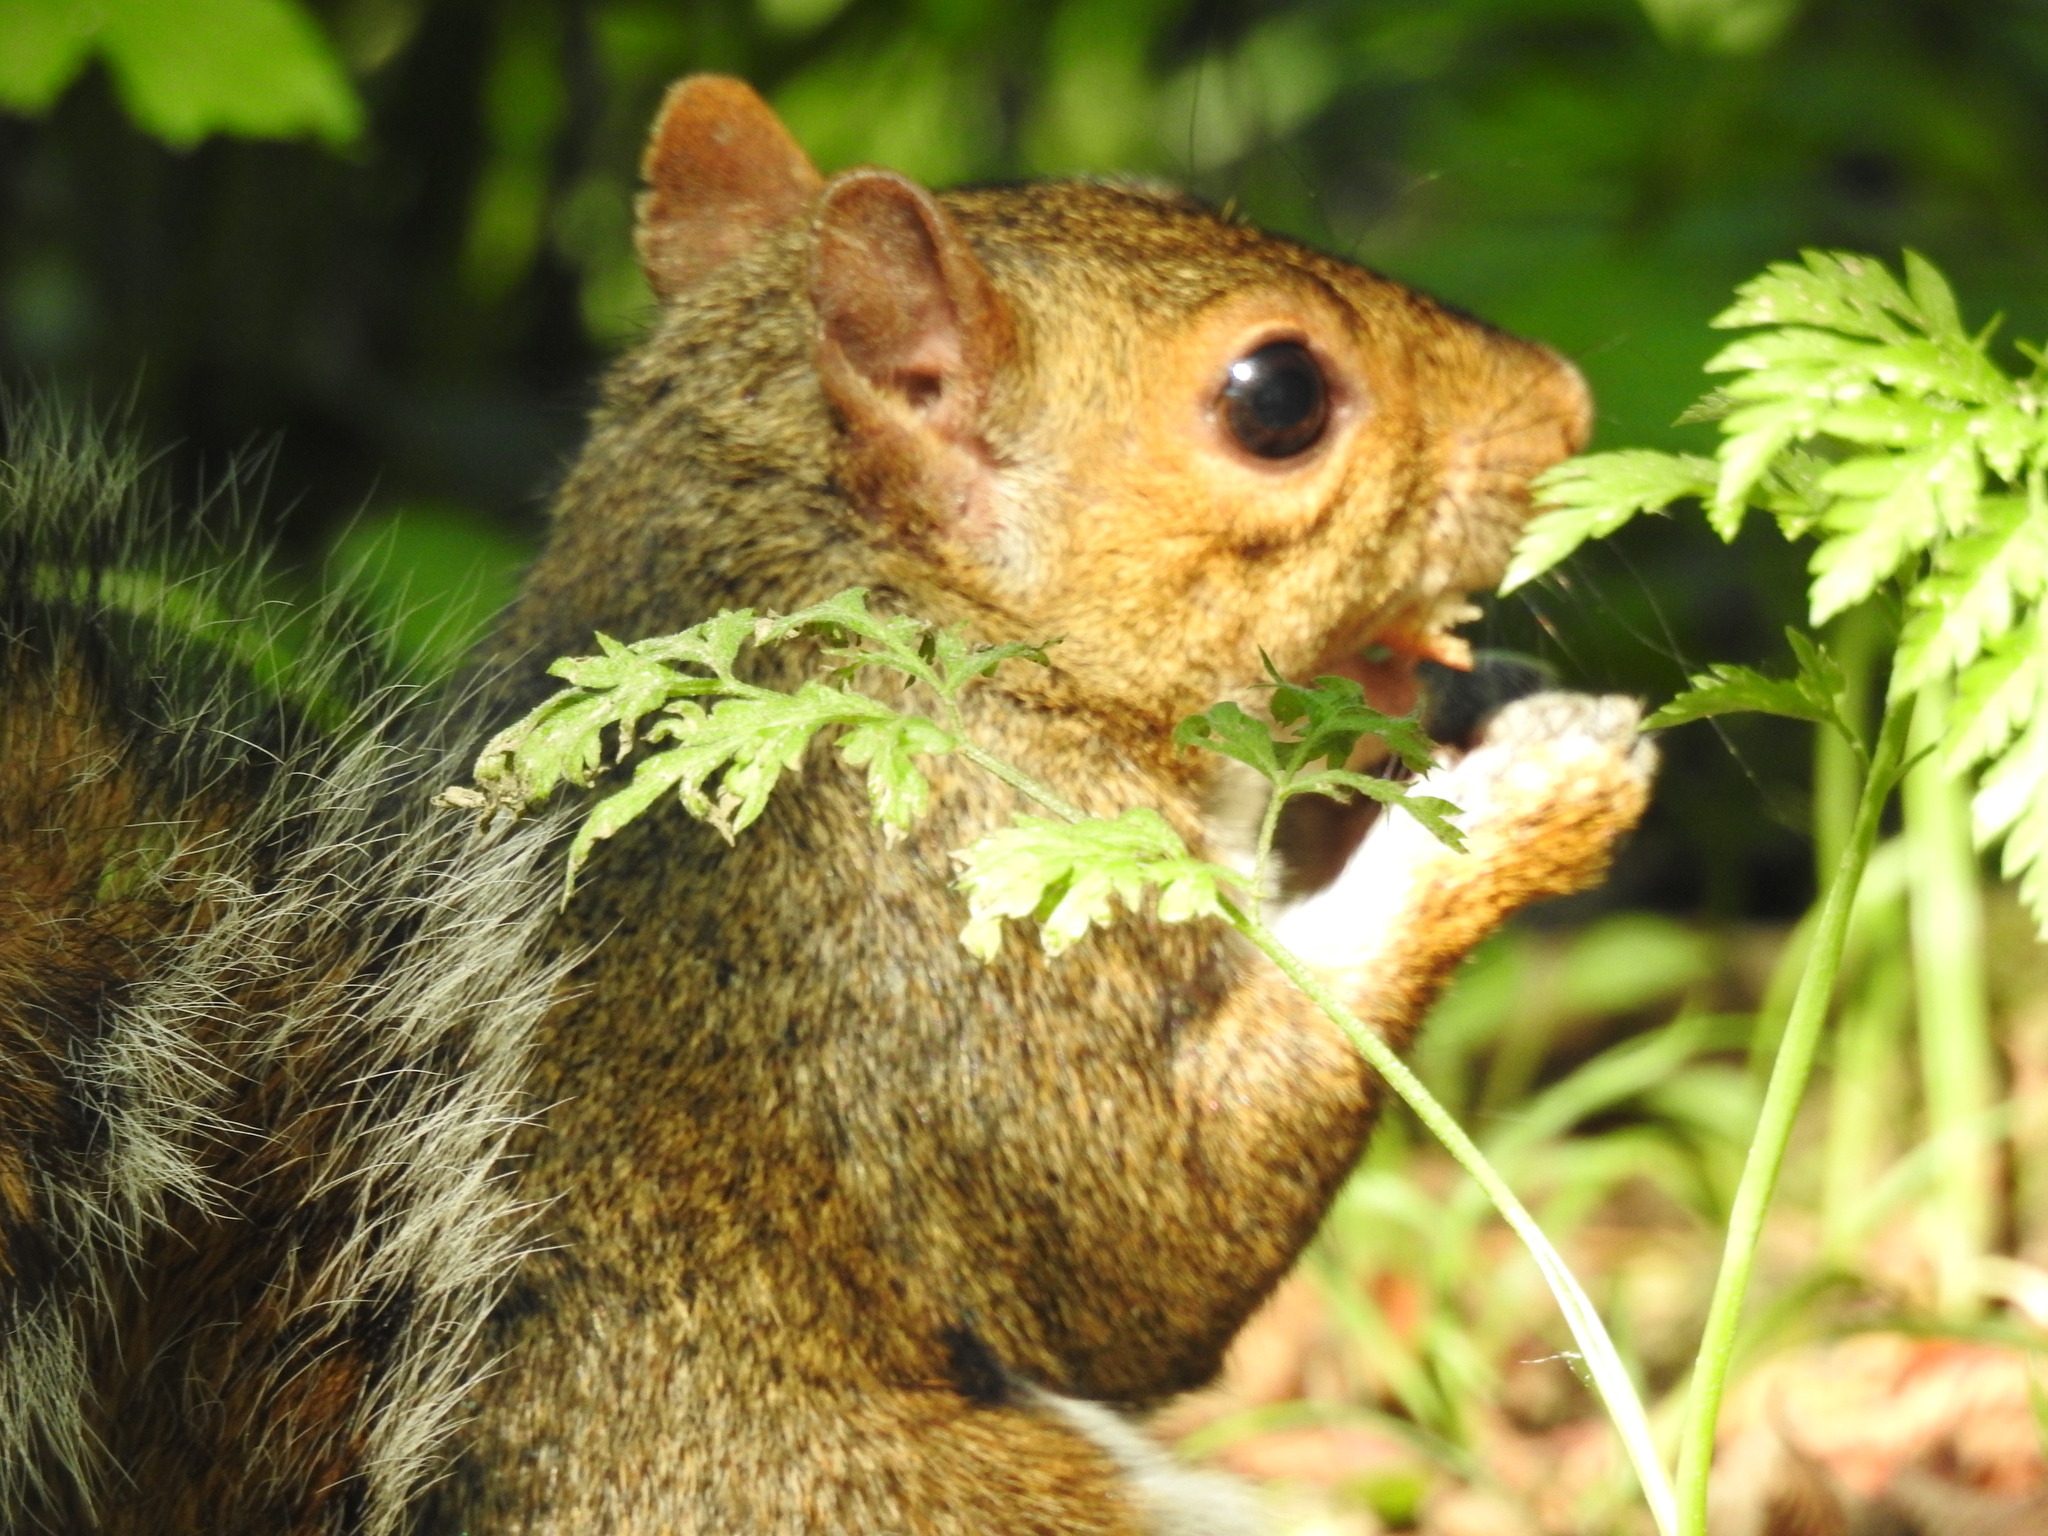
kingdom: Animalia
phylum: Chordata
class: Mammalia
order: Rodentia
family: Sciuridae
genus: Sciurus
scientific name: Sciurus carolinensis
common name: Eastern gray squirrel
